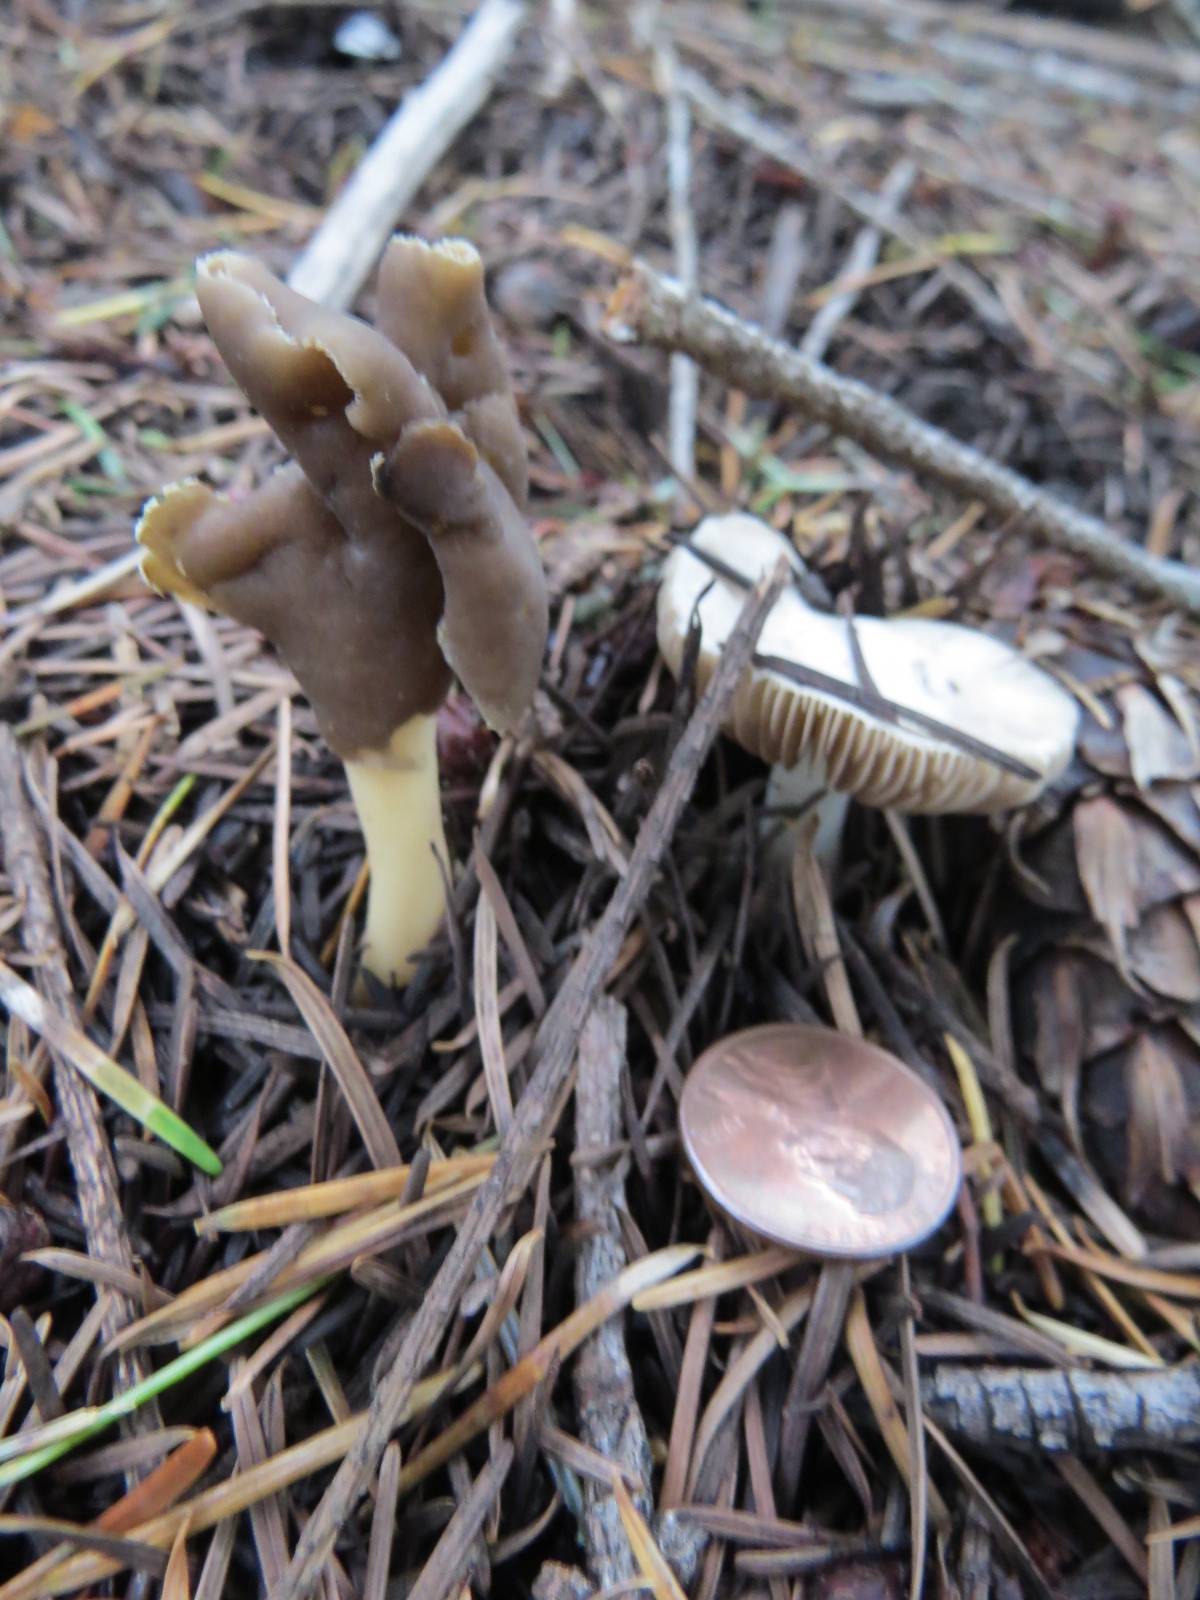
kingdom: Fungi
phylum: Ascomycota
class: Pezizomycetes
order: Pezizales
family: Helvellaceae
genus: Helvella
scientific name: Helvella compressa
